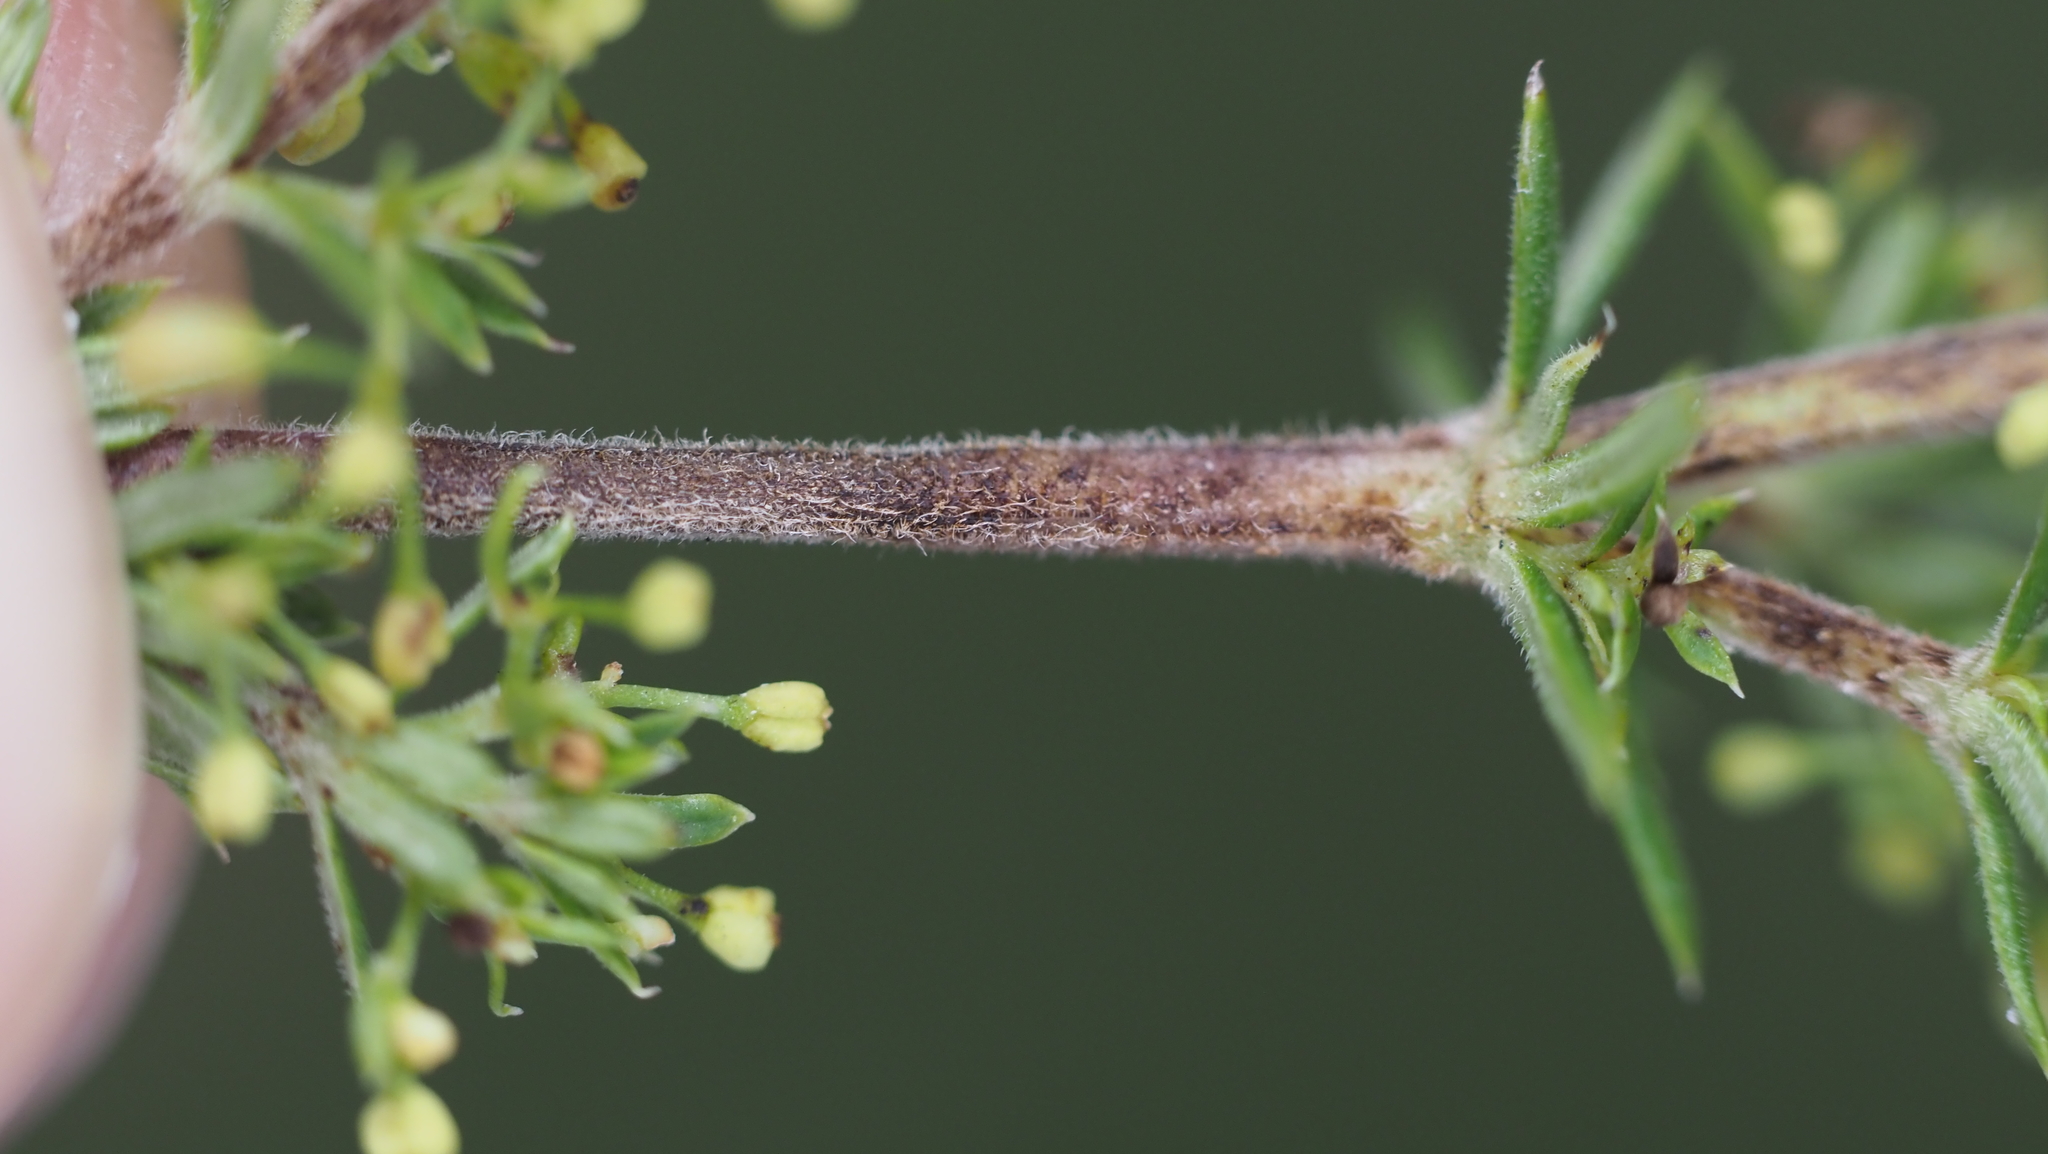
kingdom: Plantae
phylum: Tracheophyta
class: Magnoliopsida
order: Gentianales
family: Rubiaceae
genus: Galium
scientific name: Galium verum
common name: Lady's bedstraw
